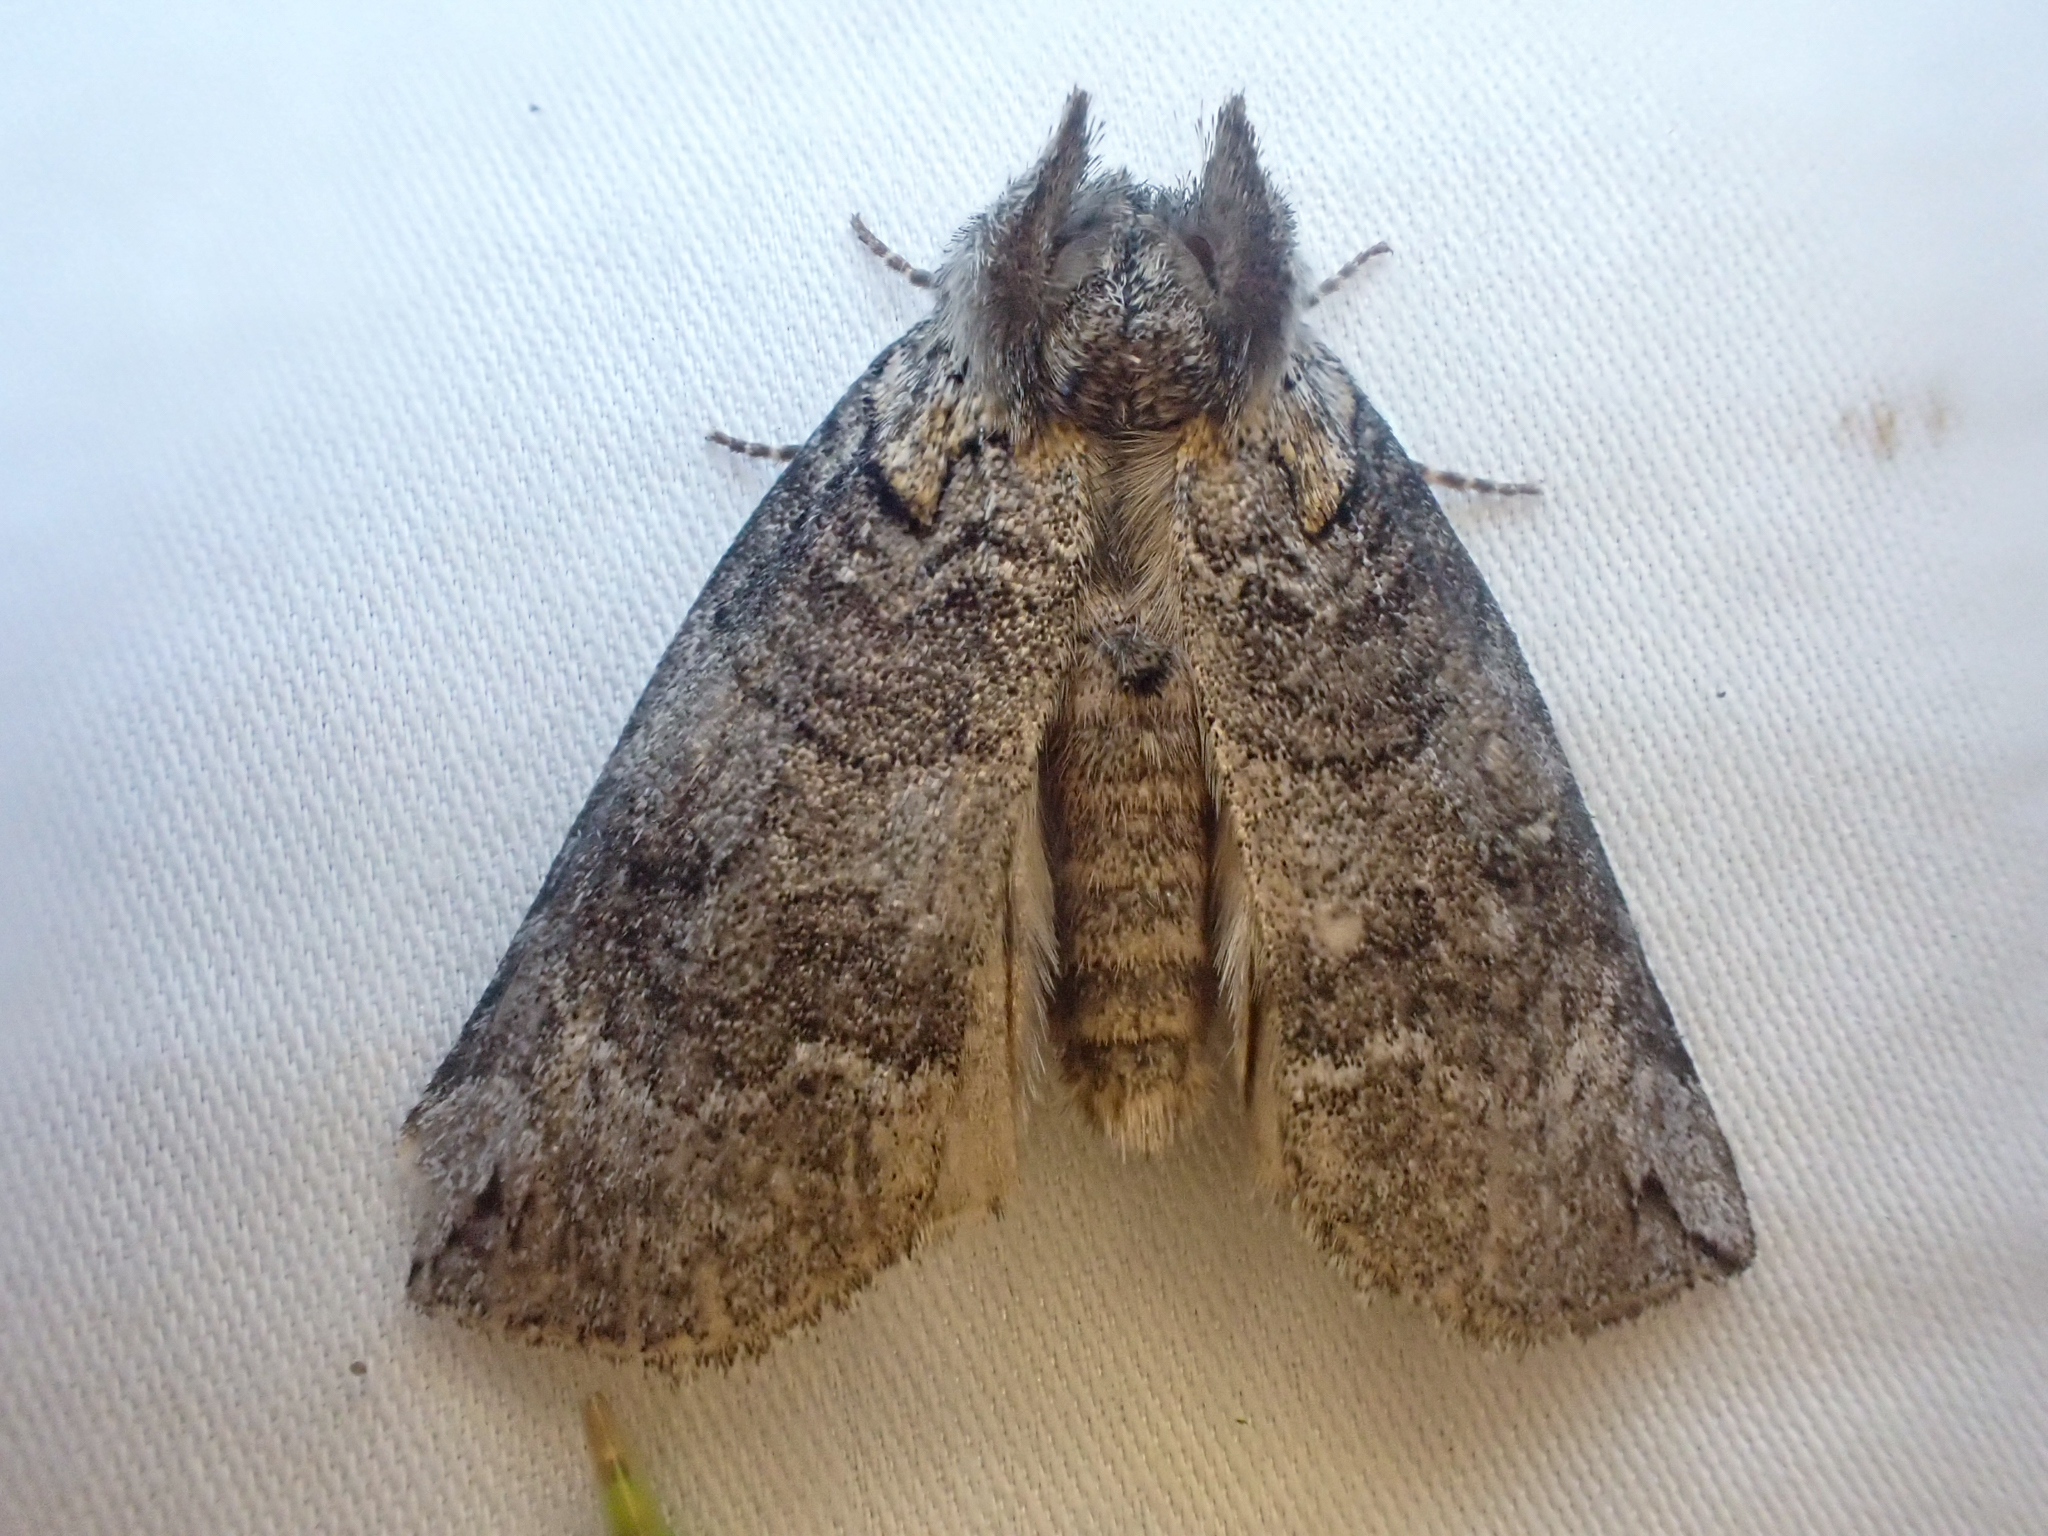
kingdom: Animalia
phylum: Arthropoda
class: Insecta
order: Lepidoptera
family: Drepanidae
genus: Euthyatira
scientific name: Euthyatira semicircularis
